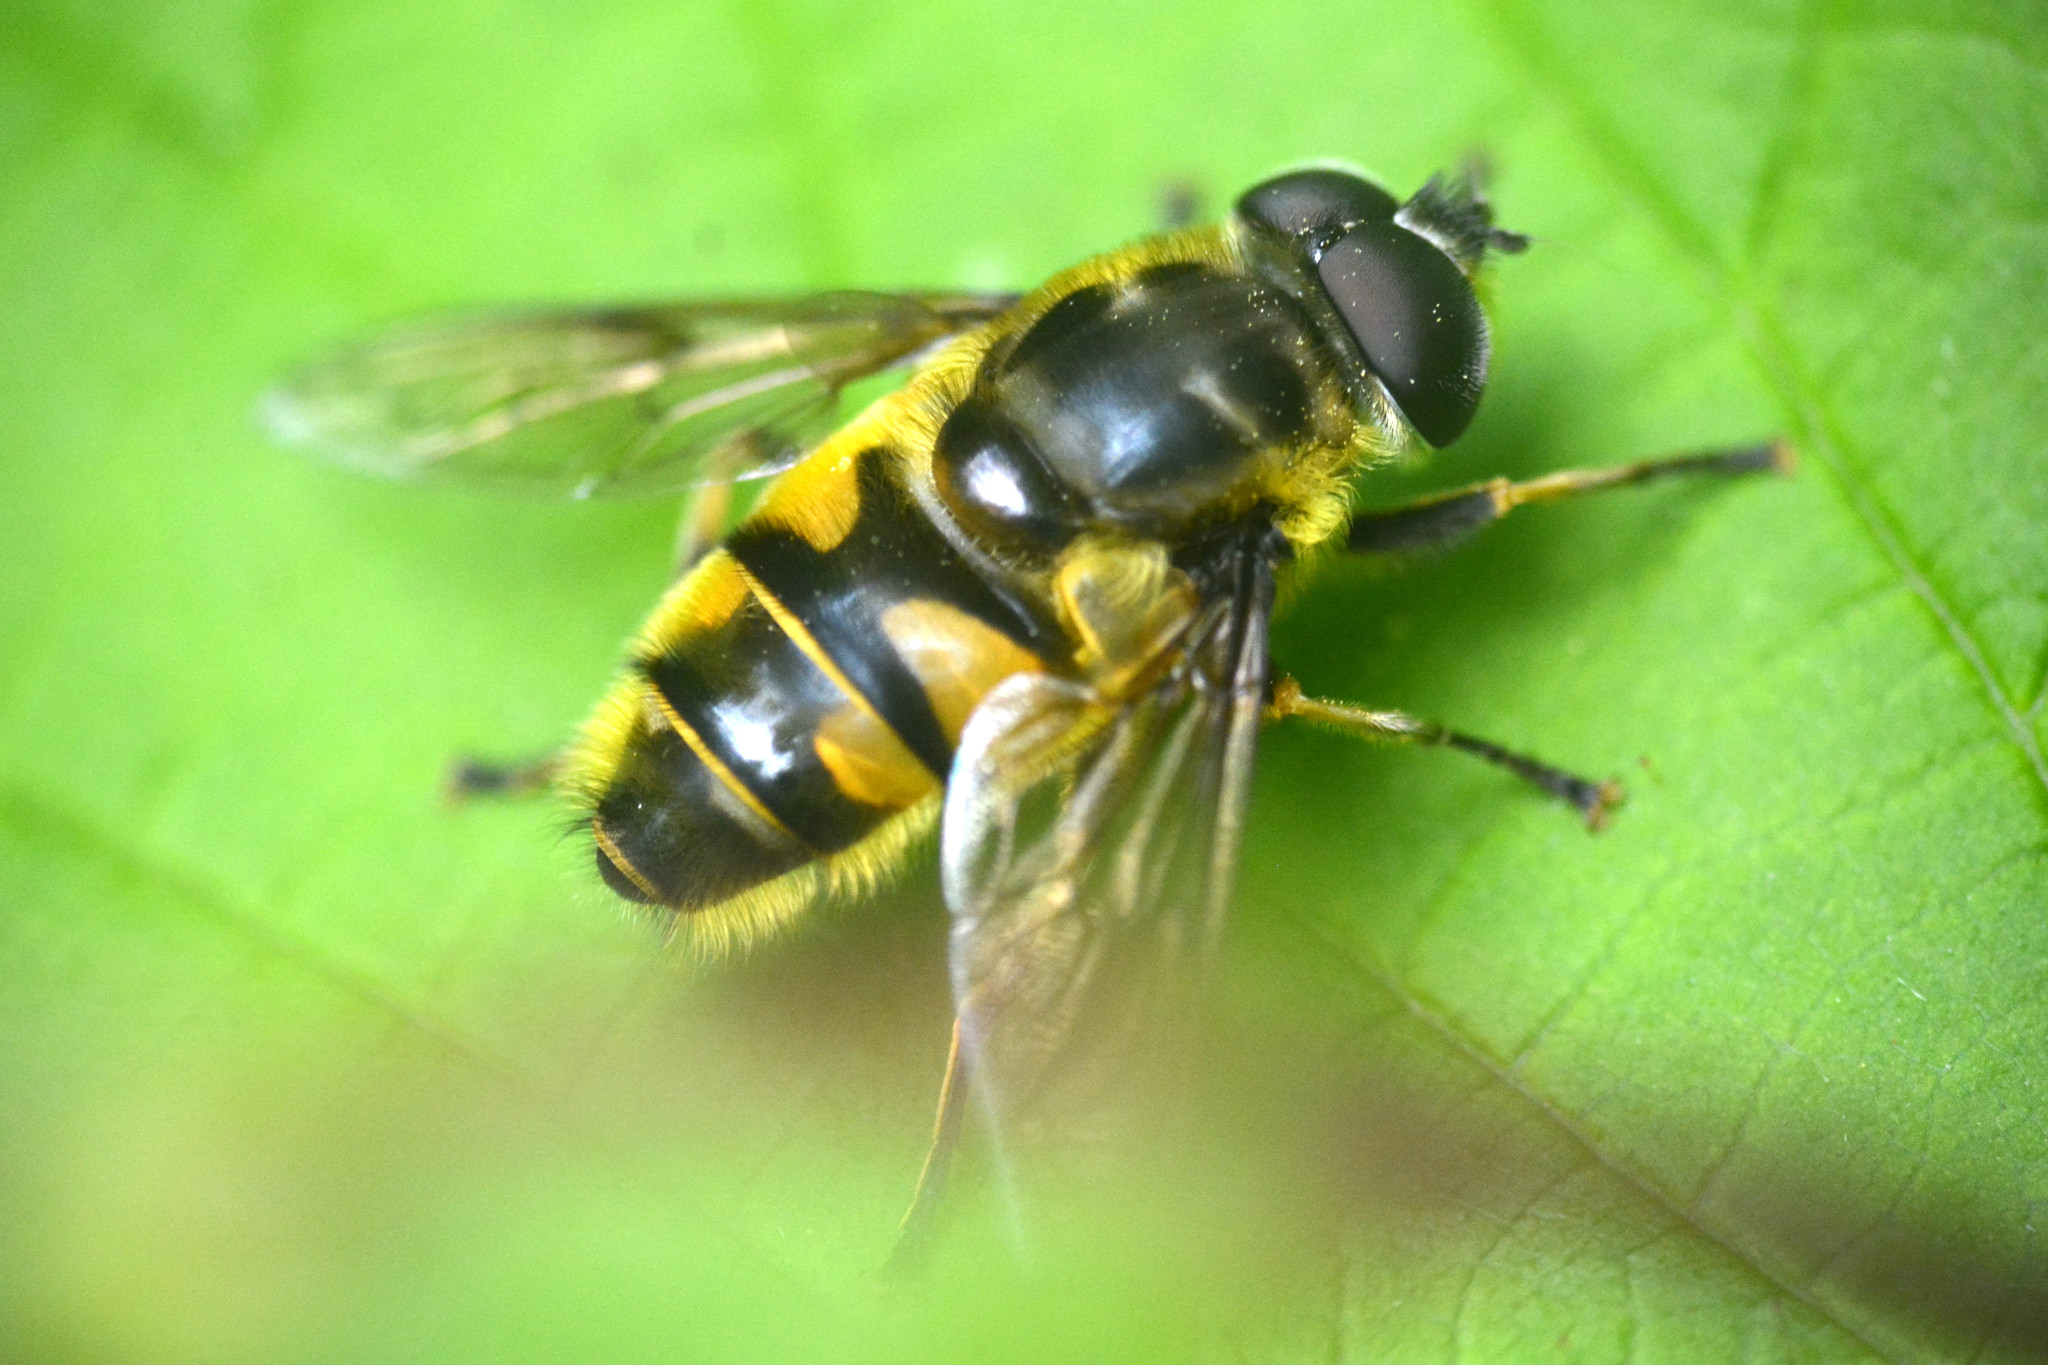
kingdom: Animalia
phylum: Arthropoda
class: Insecta
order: Diptera
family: Syrphidae
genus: Myathropa
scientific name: Myathropa florea
